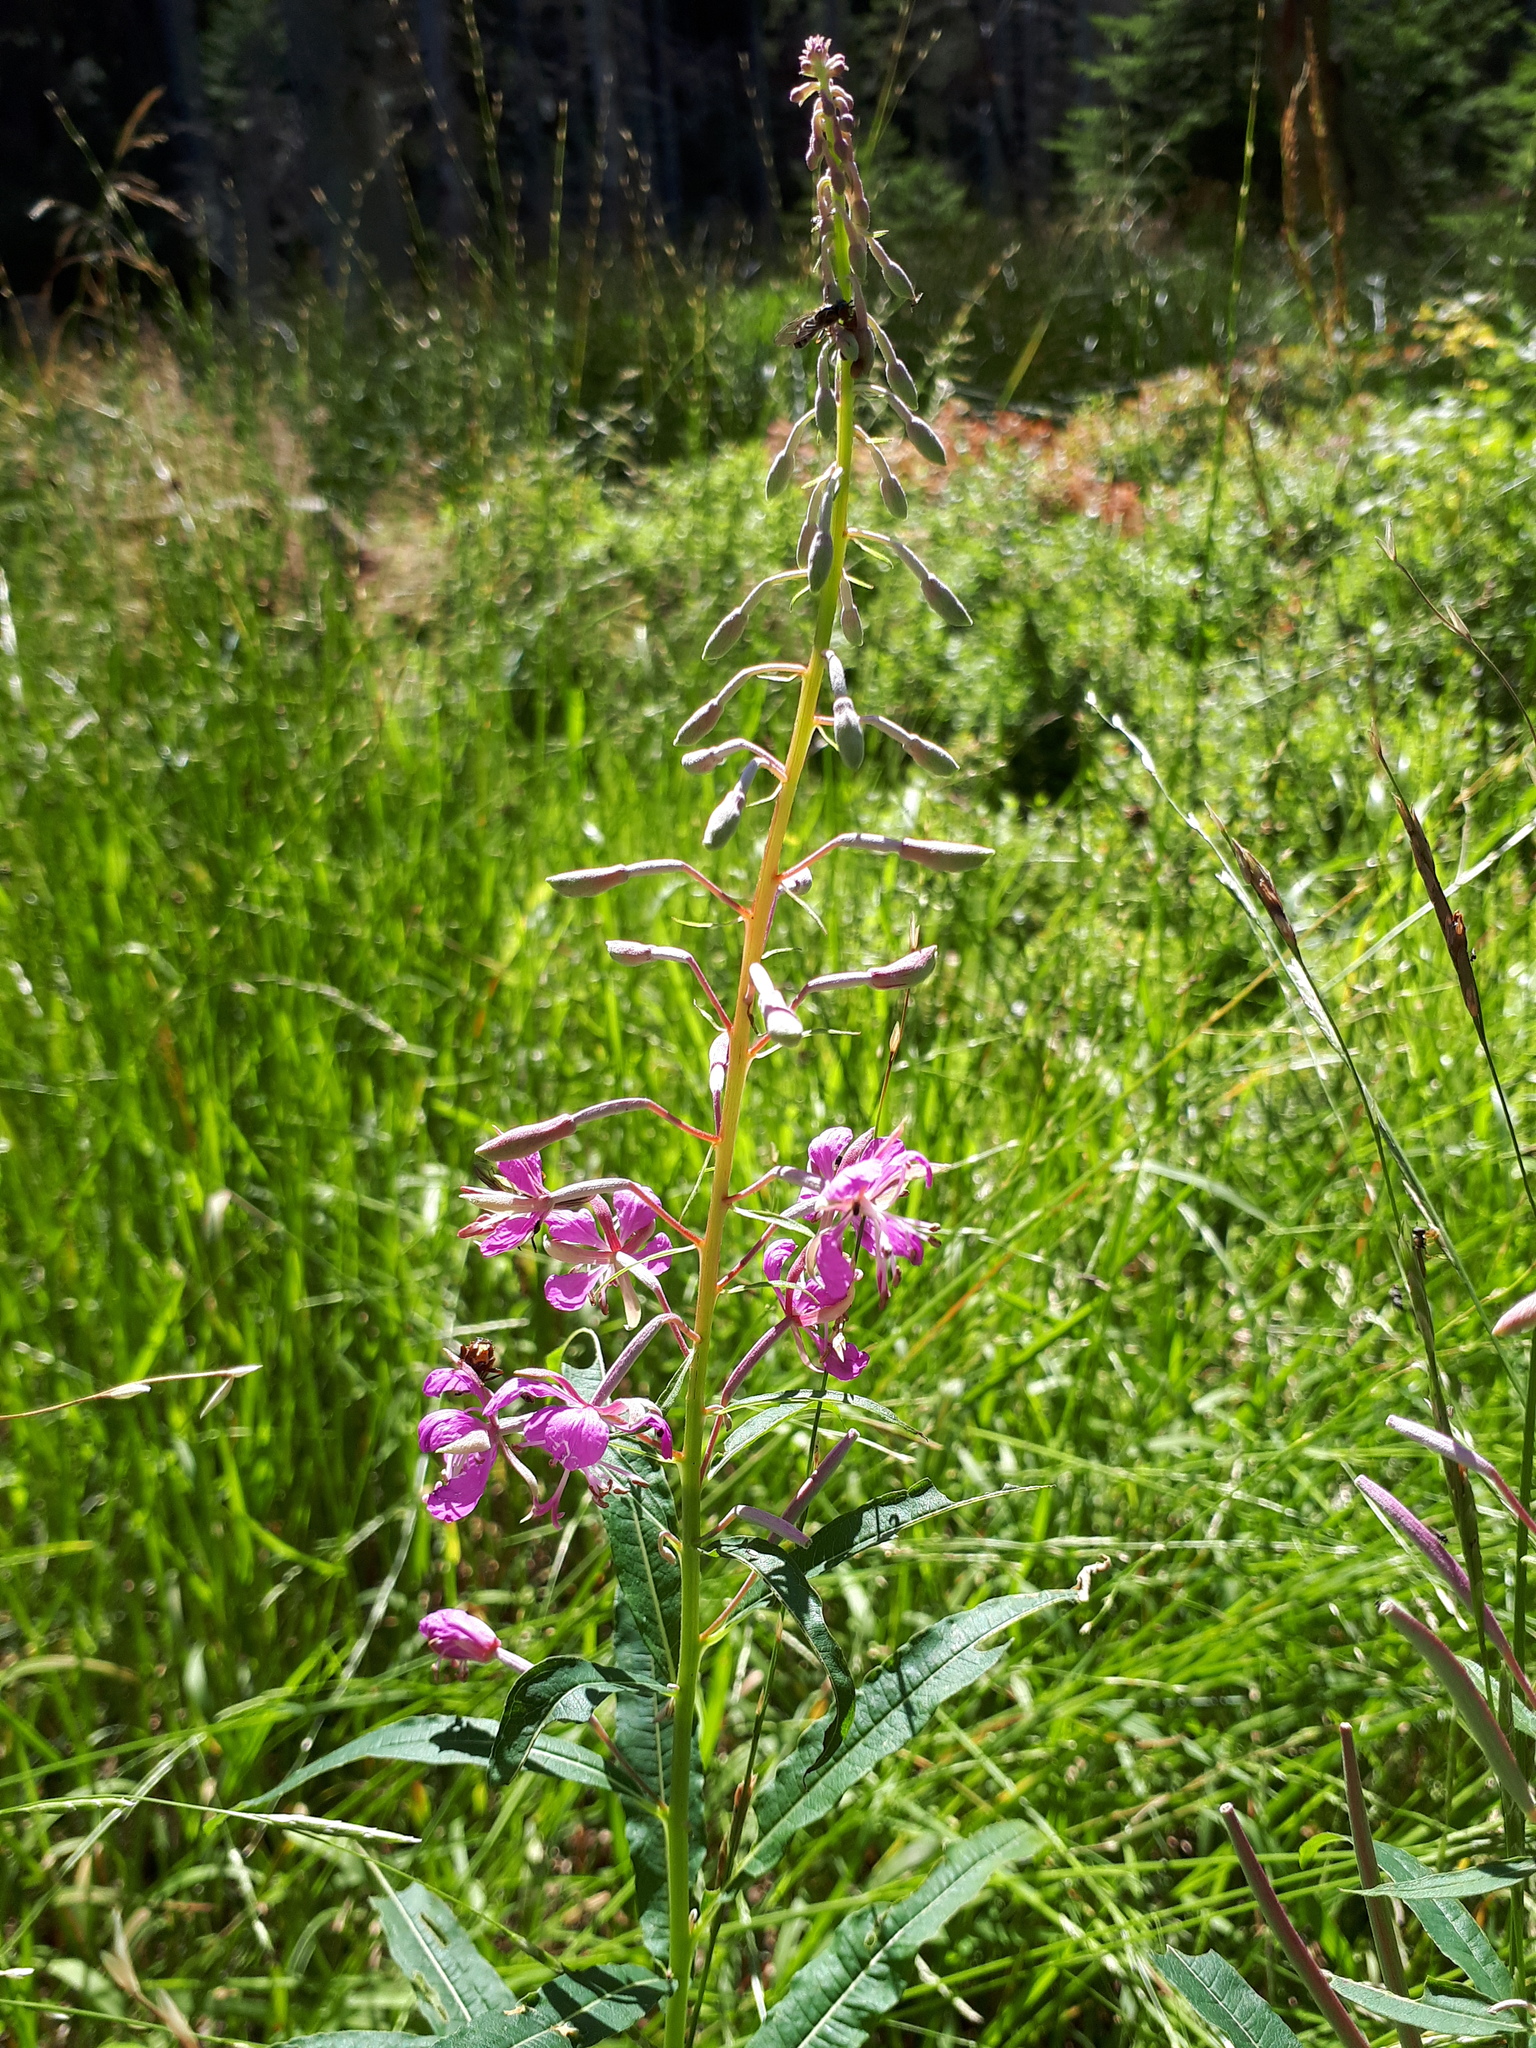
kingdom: Plantae
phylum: Tracheophyta
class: Magnoliopsida
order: Myrtales
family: Onagraceae
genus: Chamaenerion
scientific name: Chamaenerion angustifolium
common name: Fireweed
